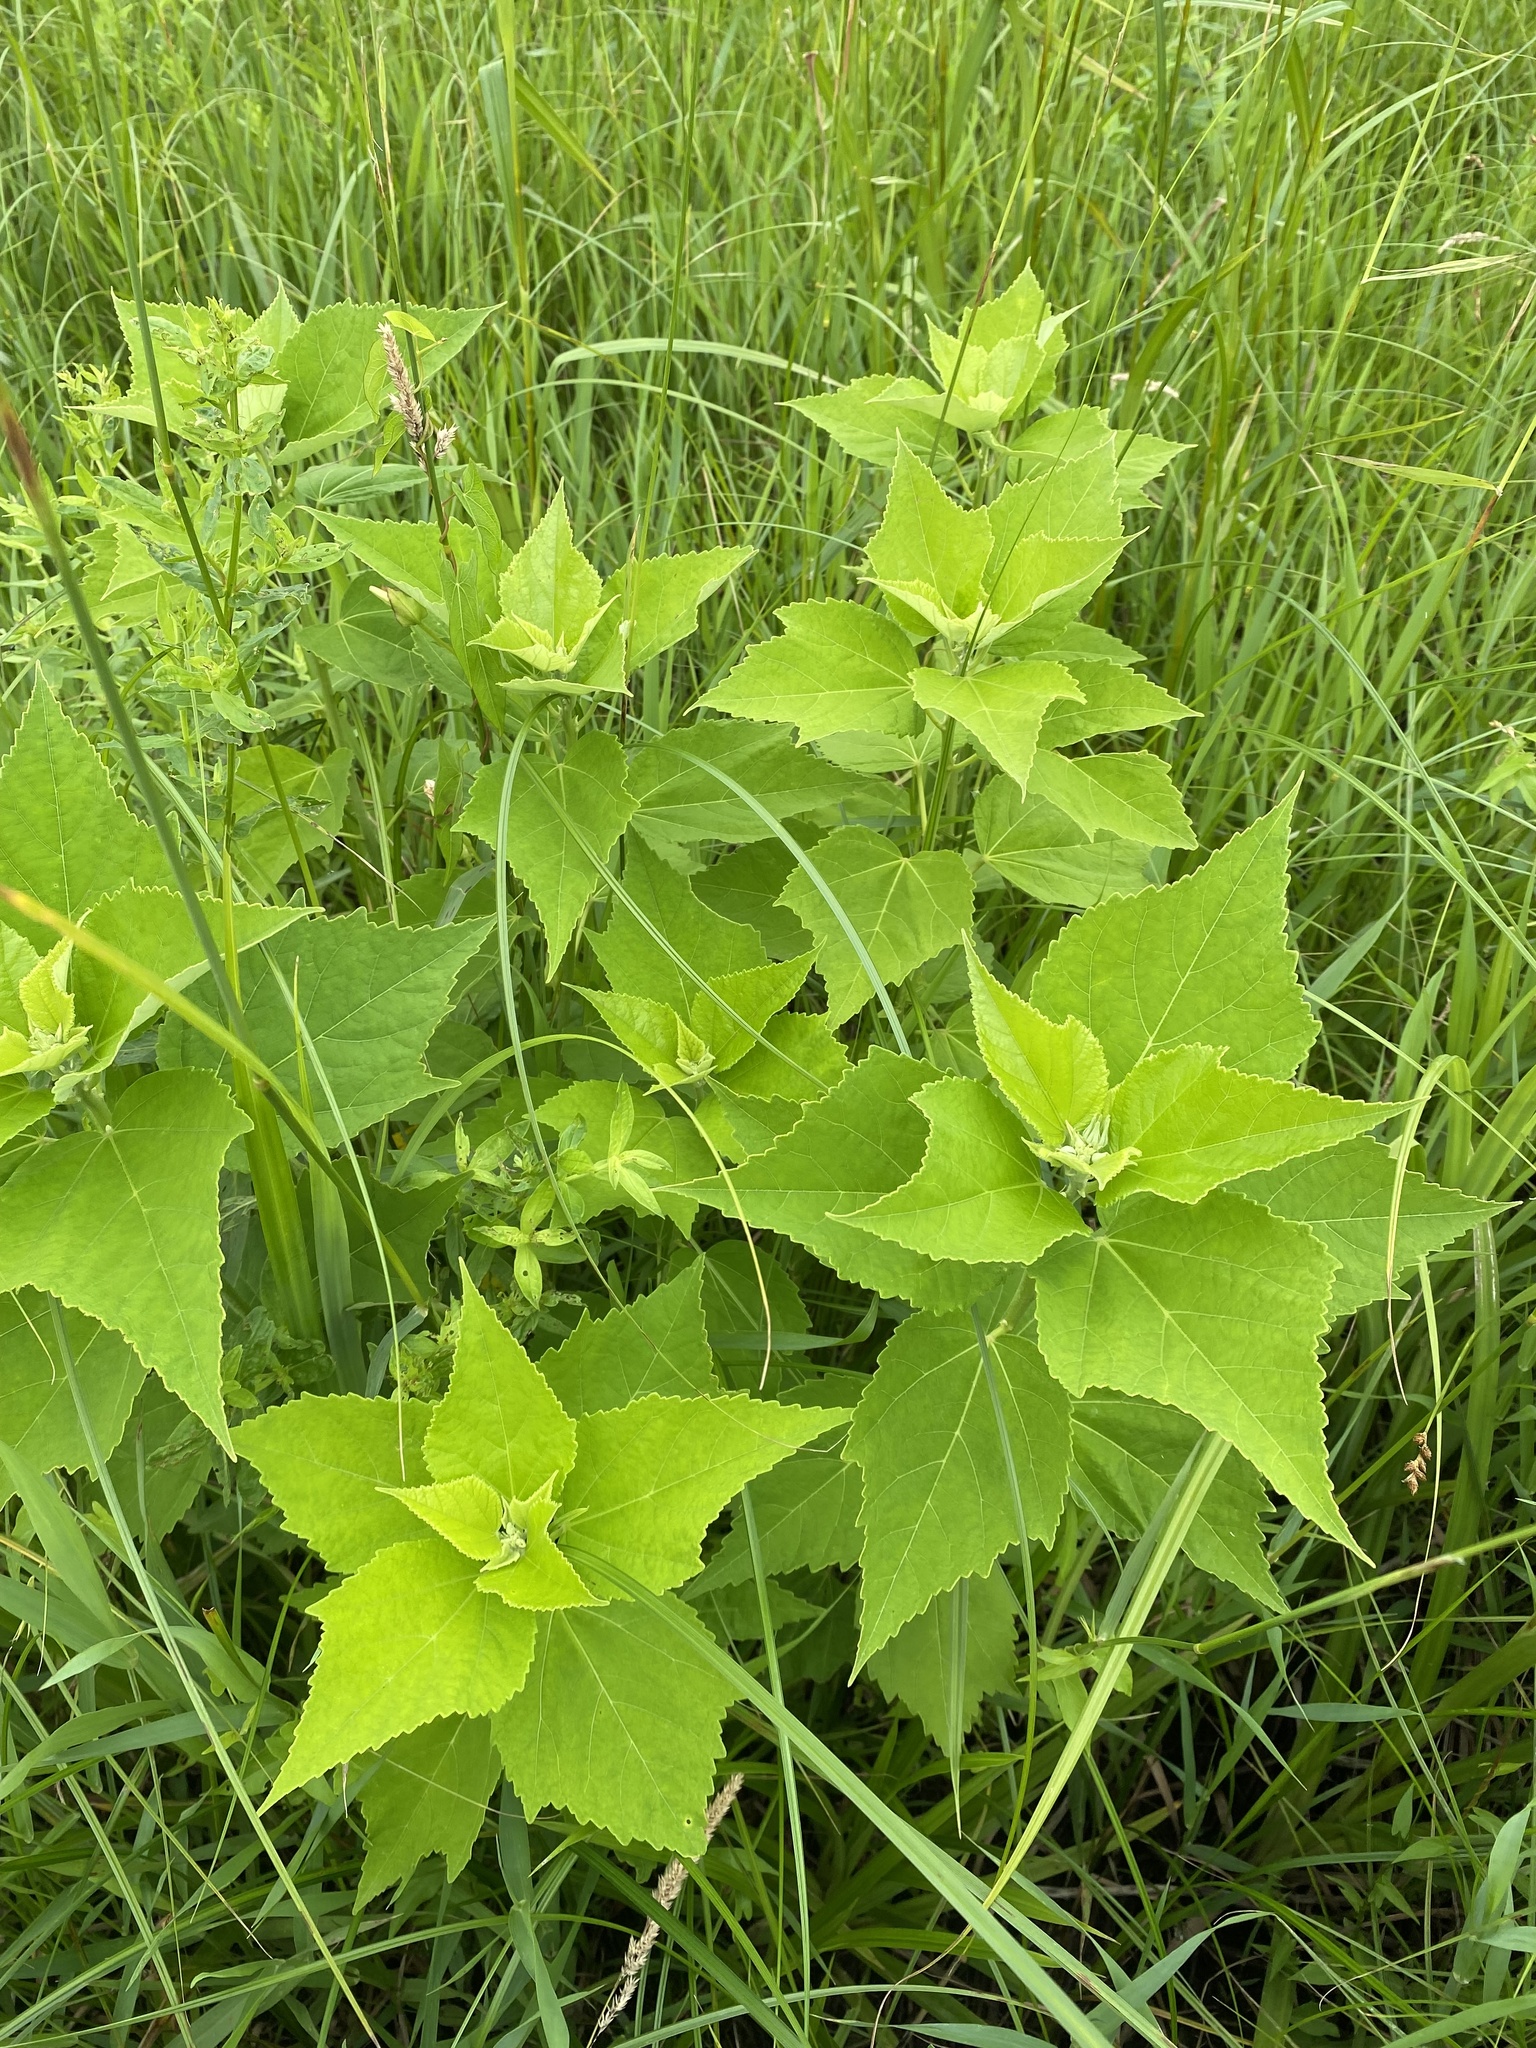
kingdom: Plantae
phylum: Tracheophyta
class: Magnoliopsida
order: Malvales
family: Malvaceae
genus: Hibiscus
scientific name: Hibiscus moscheutos
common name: Common rose-mallow
